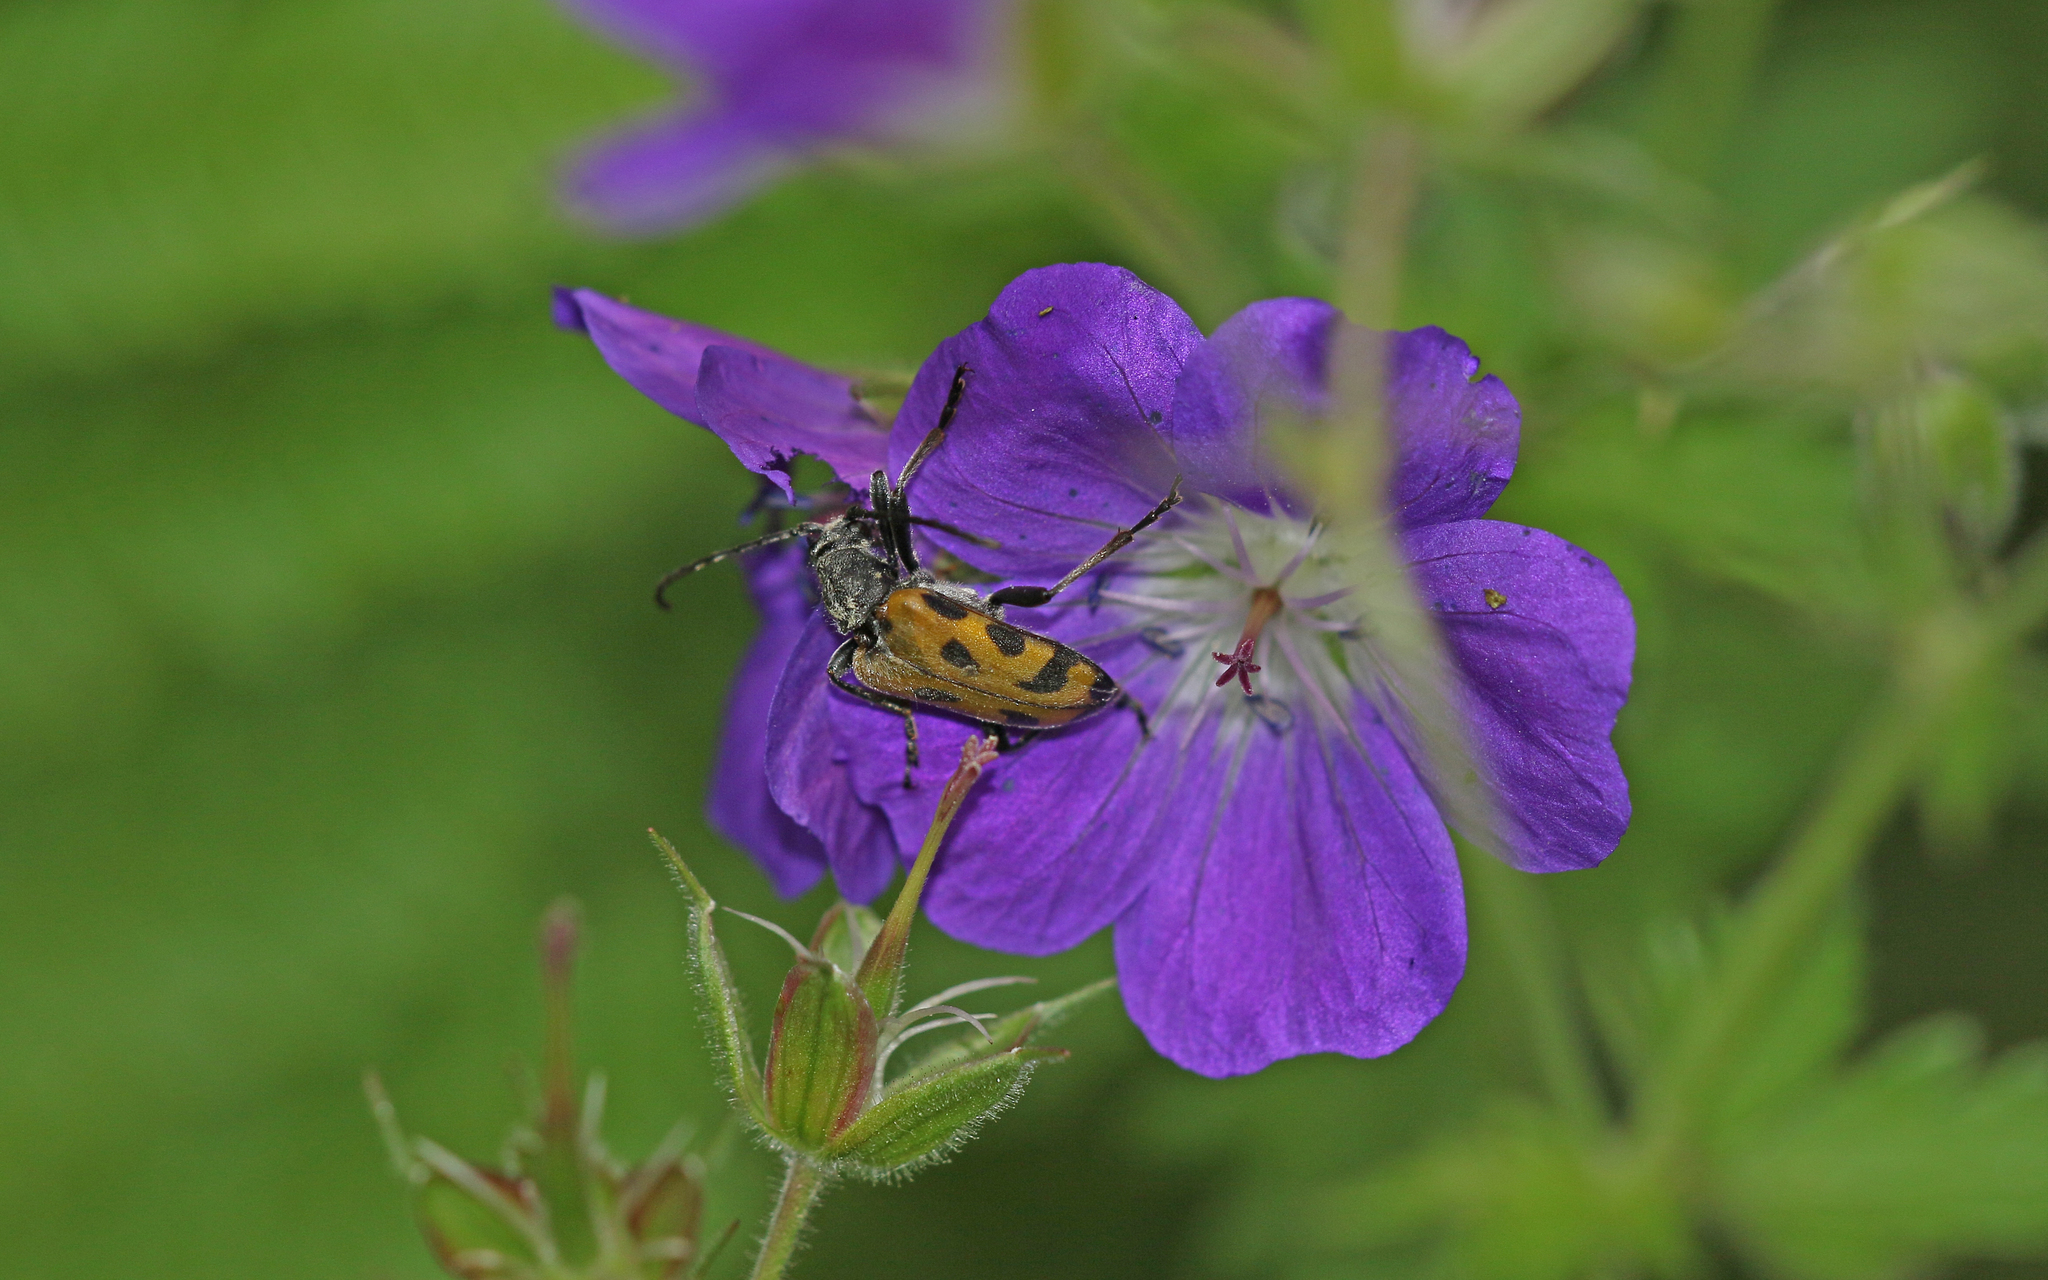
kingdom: Animalia
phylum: Arthropoda
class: Insecta
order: Coleoptera
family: Cerambycidae
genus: Brachyta
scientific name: Brachyta interrogationis
